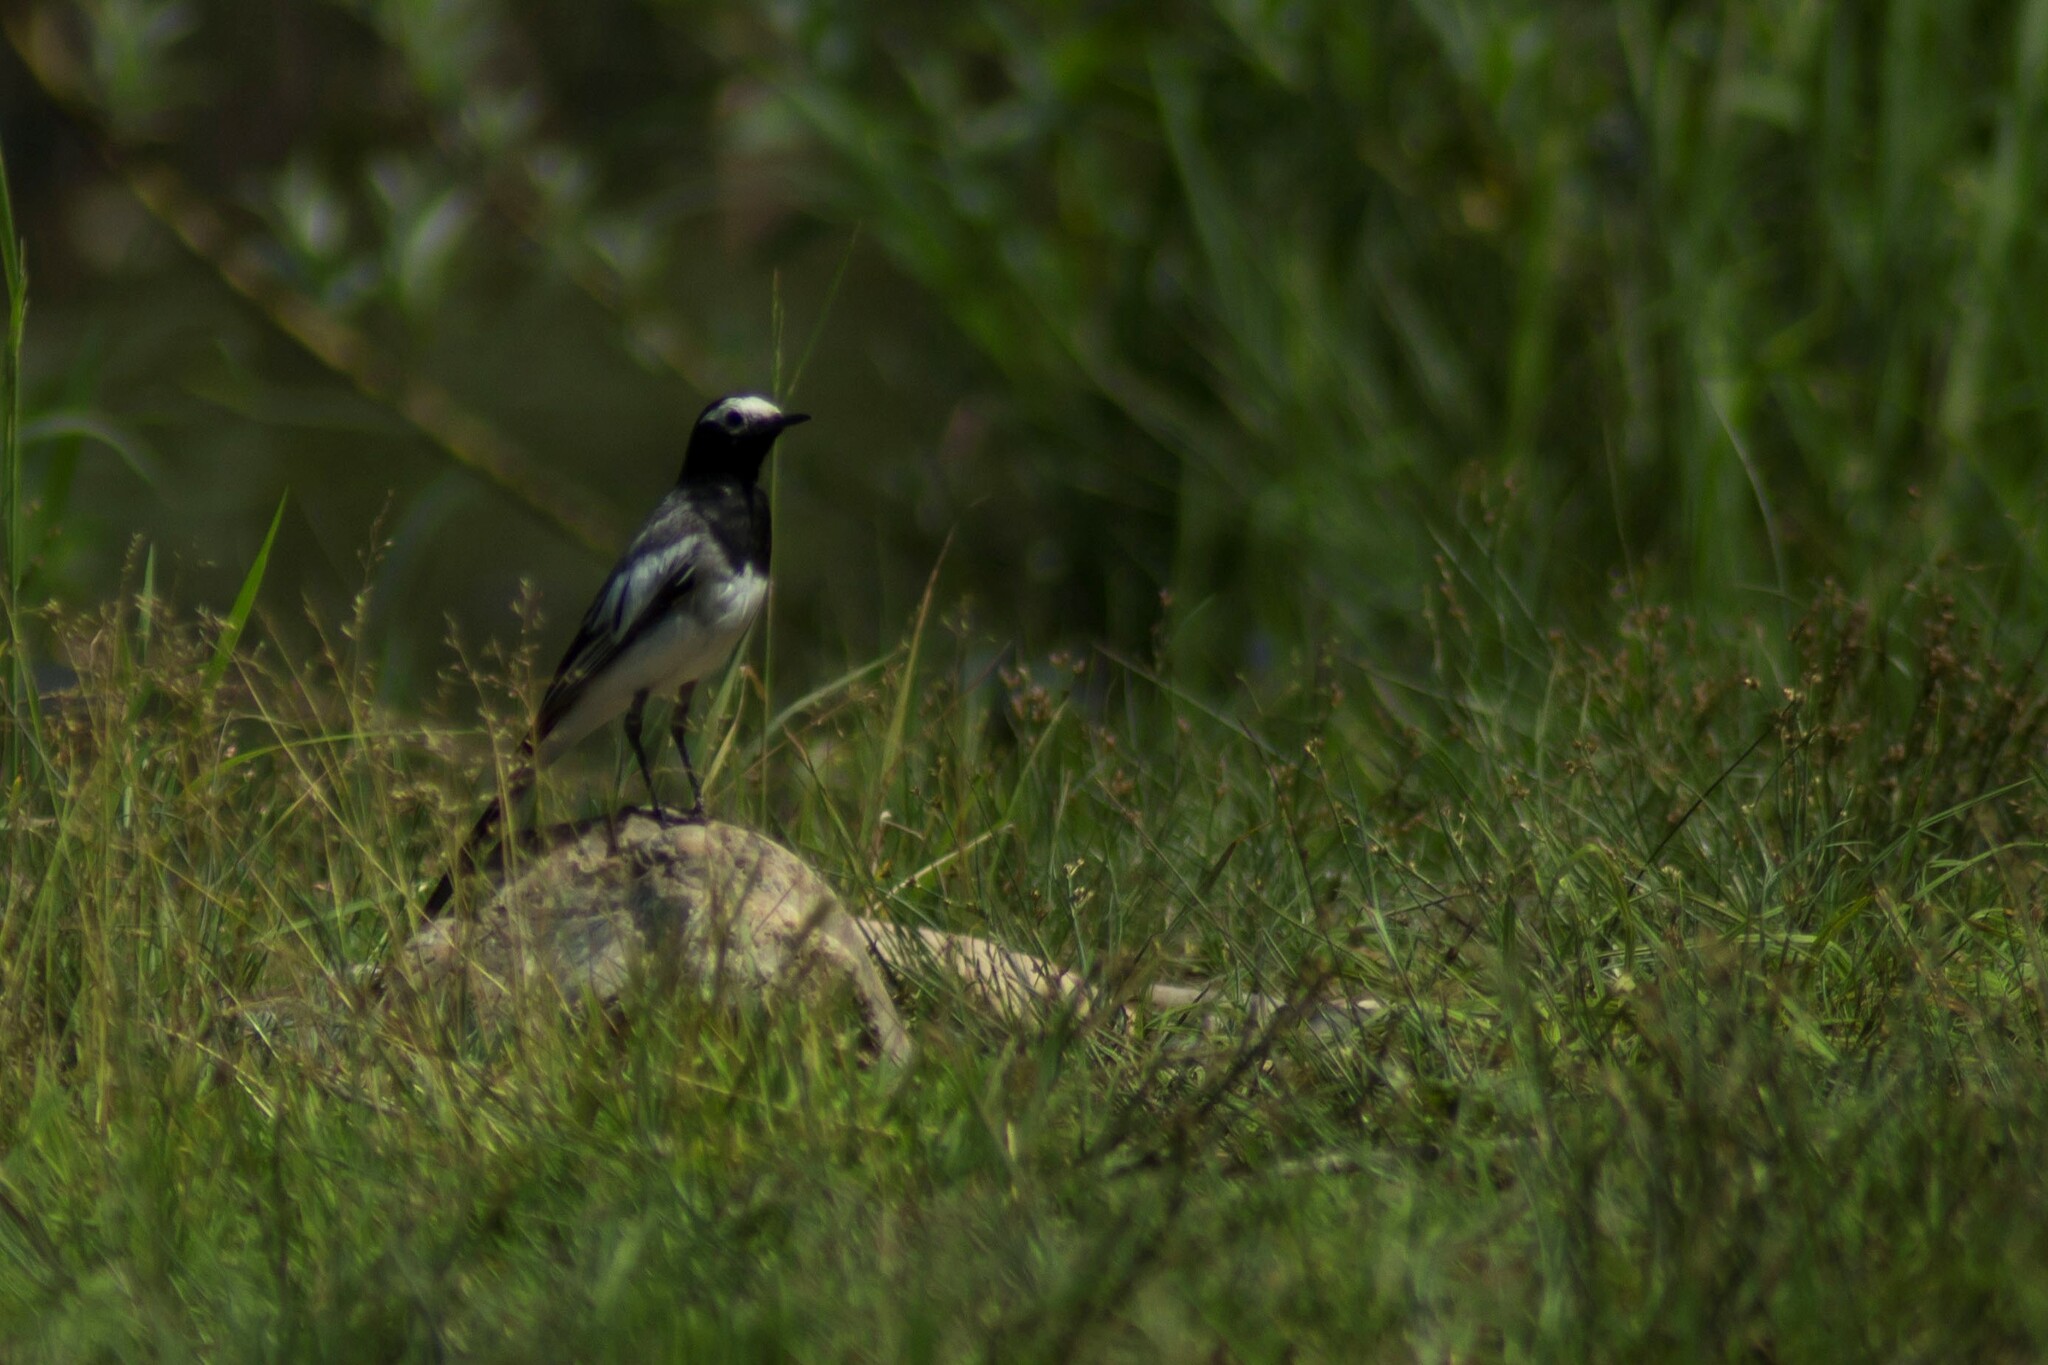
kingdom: Animalia
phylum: Chordata
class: Aves
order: Passeriformes
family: Motacillidae
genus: Motacilla
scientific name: Motacilla alba
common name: White wagtail
